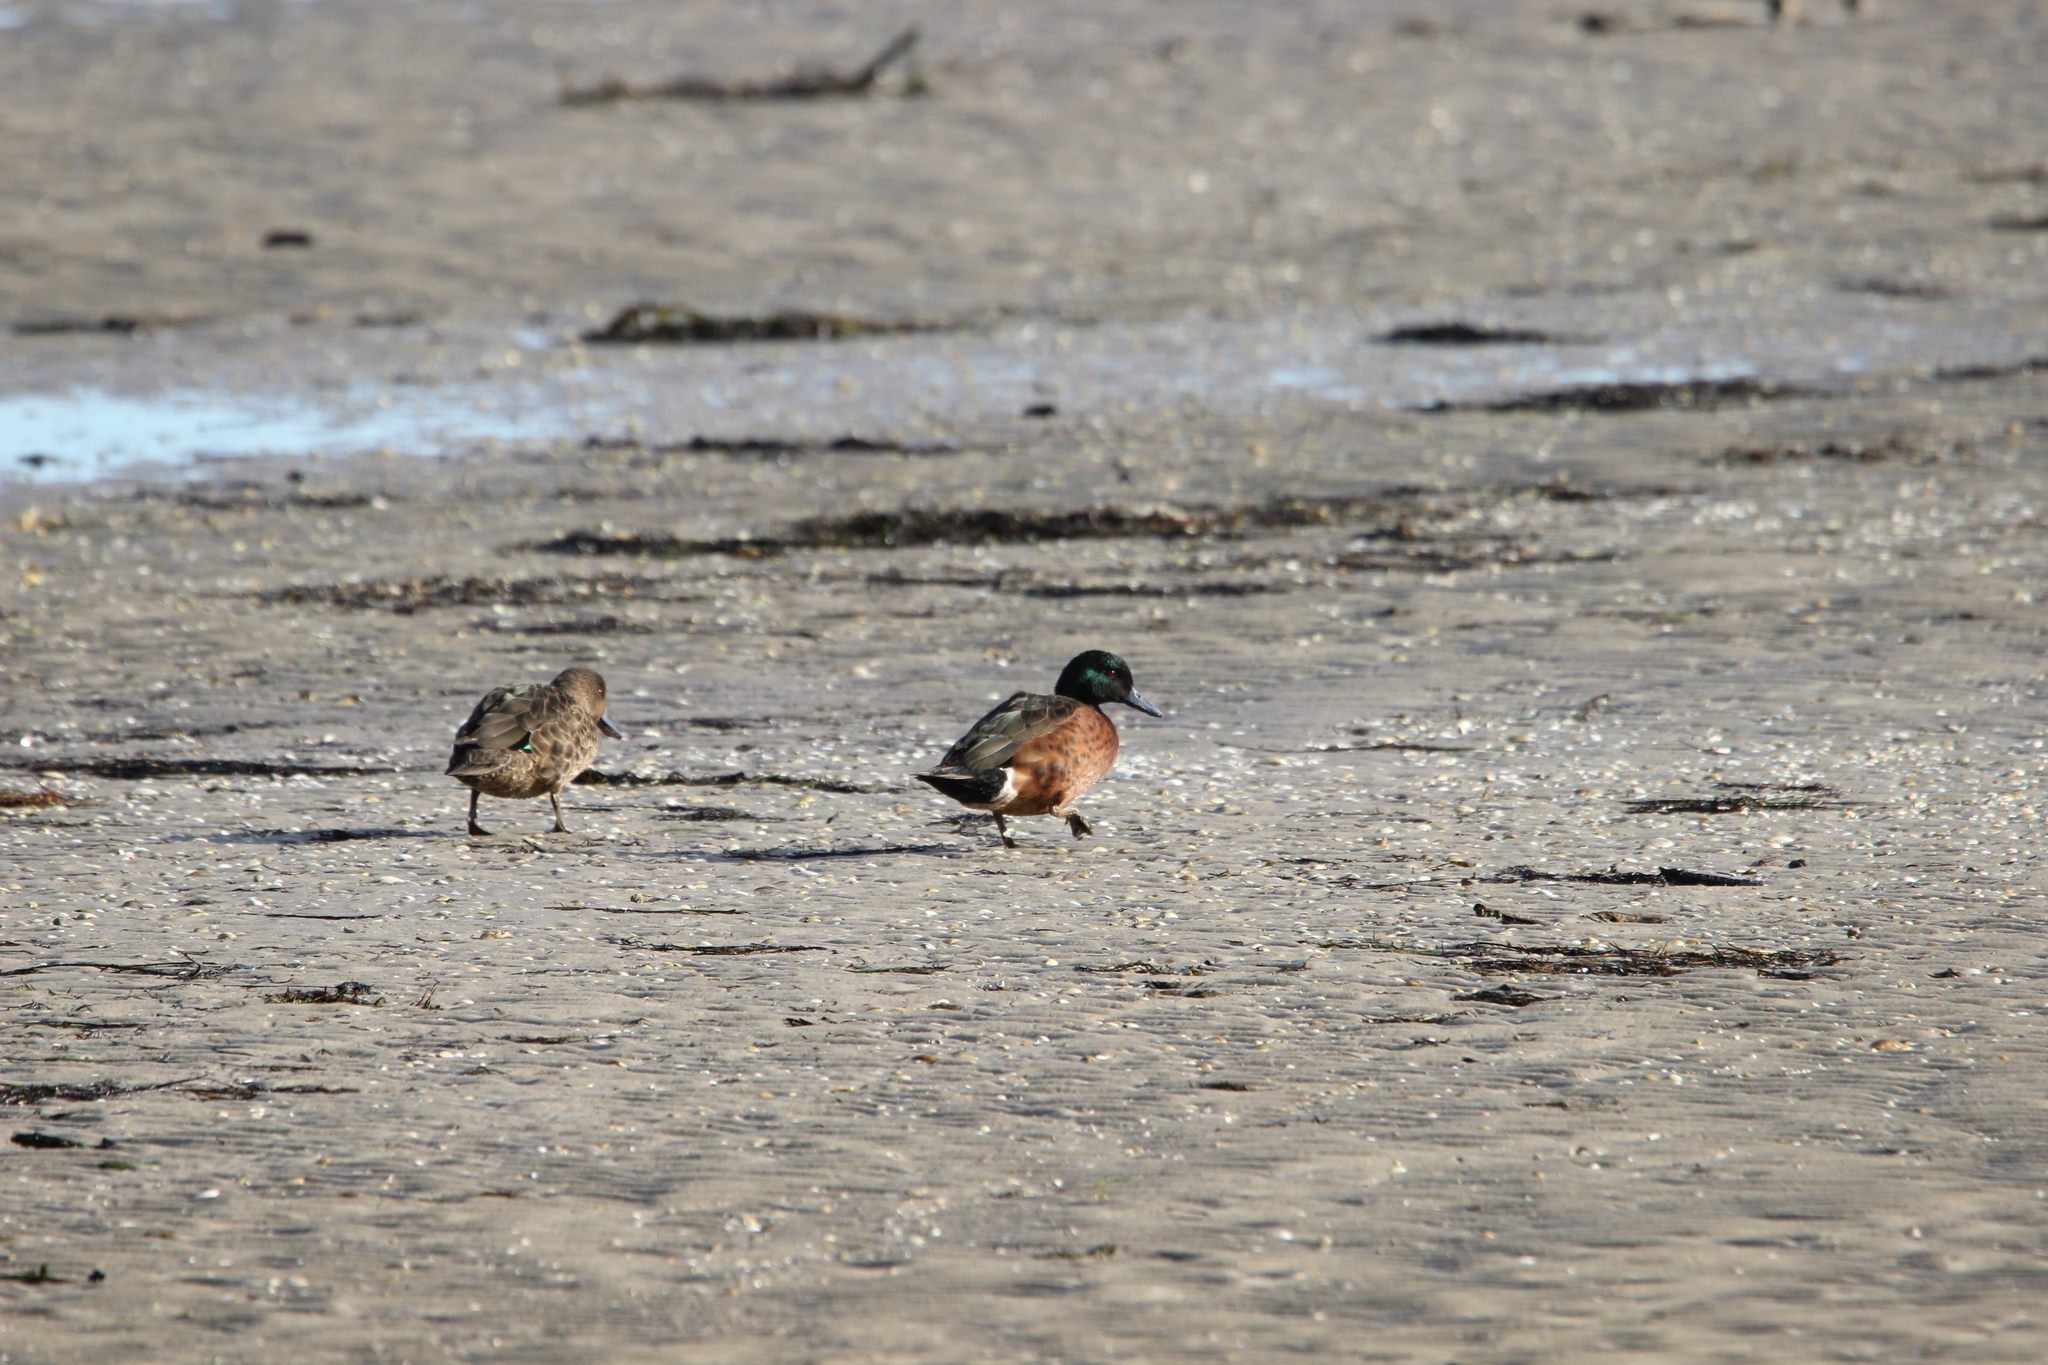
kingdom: Animalia
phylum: Chordata
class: Aves
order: Anseriformes
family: Anatidae
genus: Anas
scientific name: Anas castanea
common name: Chestnut teal
